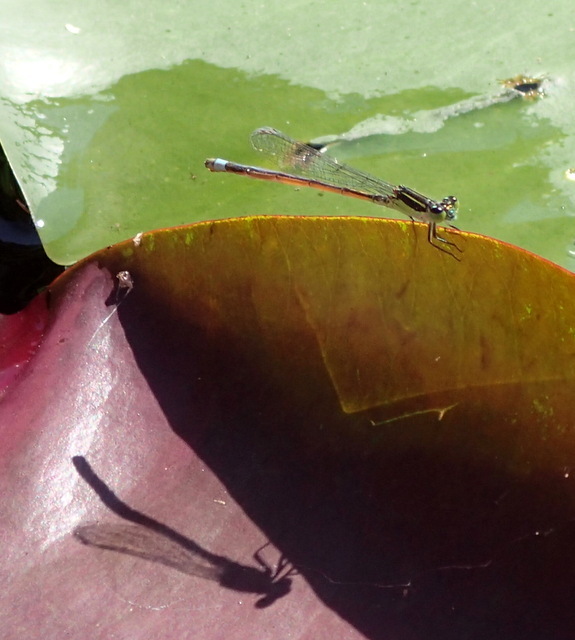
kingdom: Animalia
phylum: Arthropoda
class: Insecta
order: Odonata
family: Coenagrionidae
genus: Ischnura
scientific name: Ischnura ramburii
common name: Rambur's forktail
